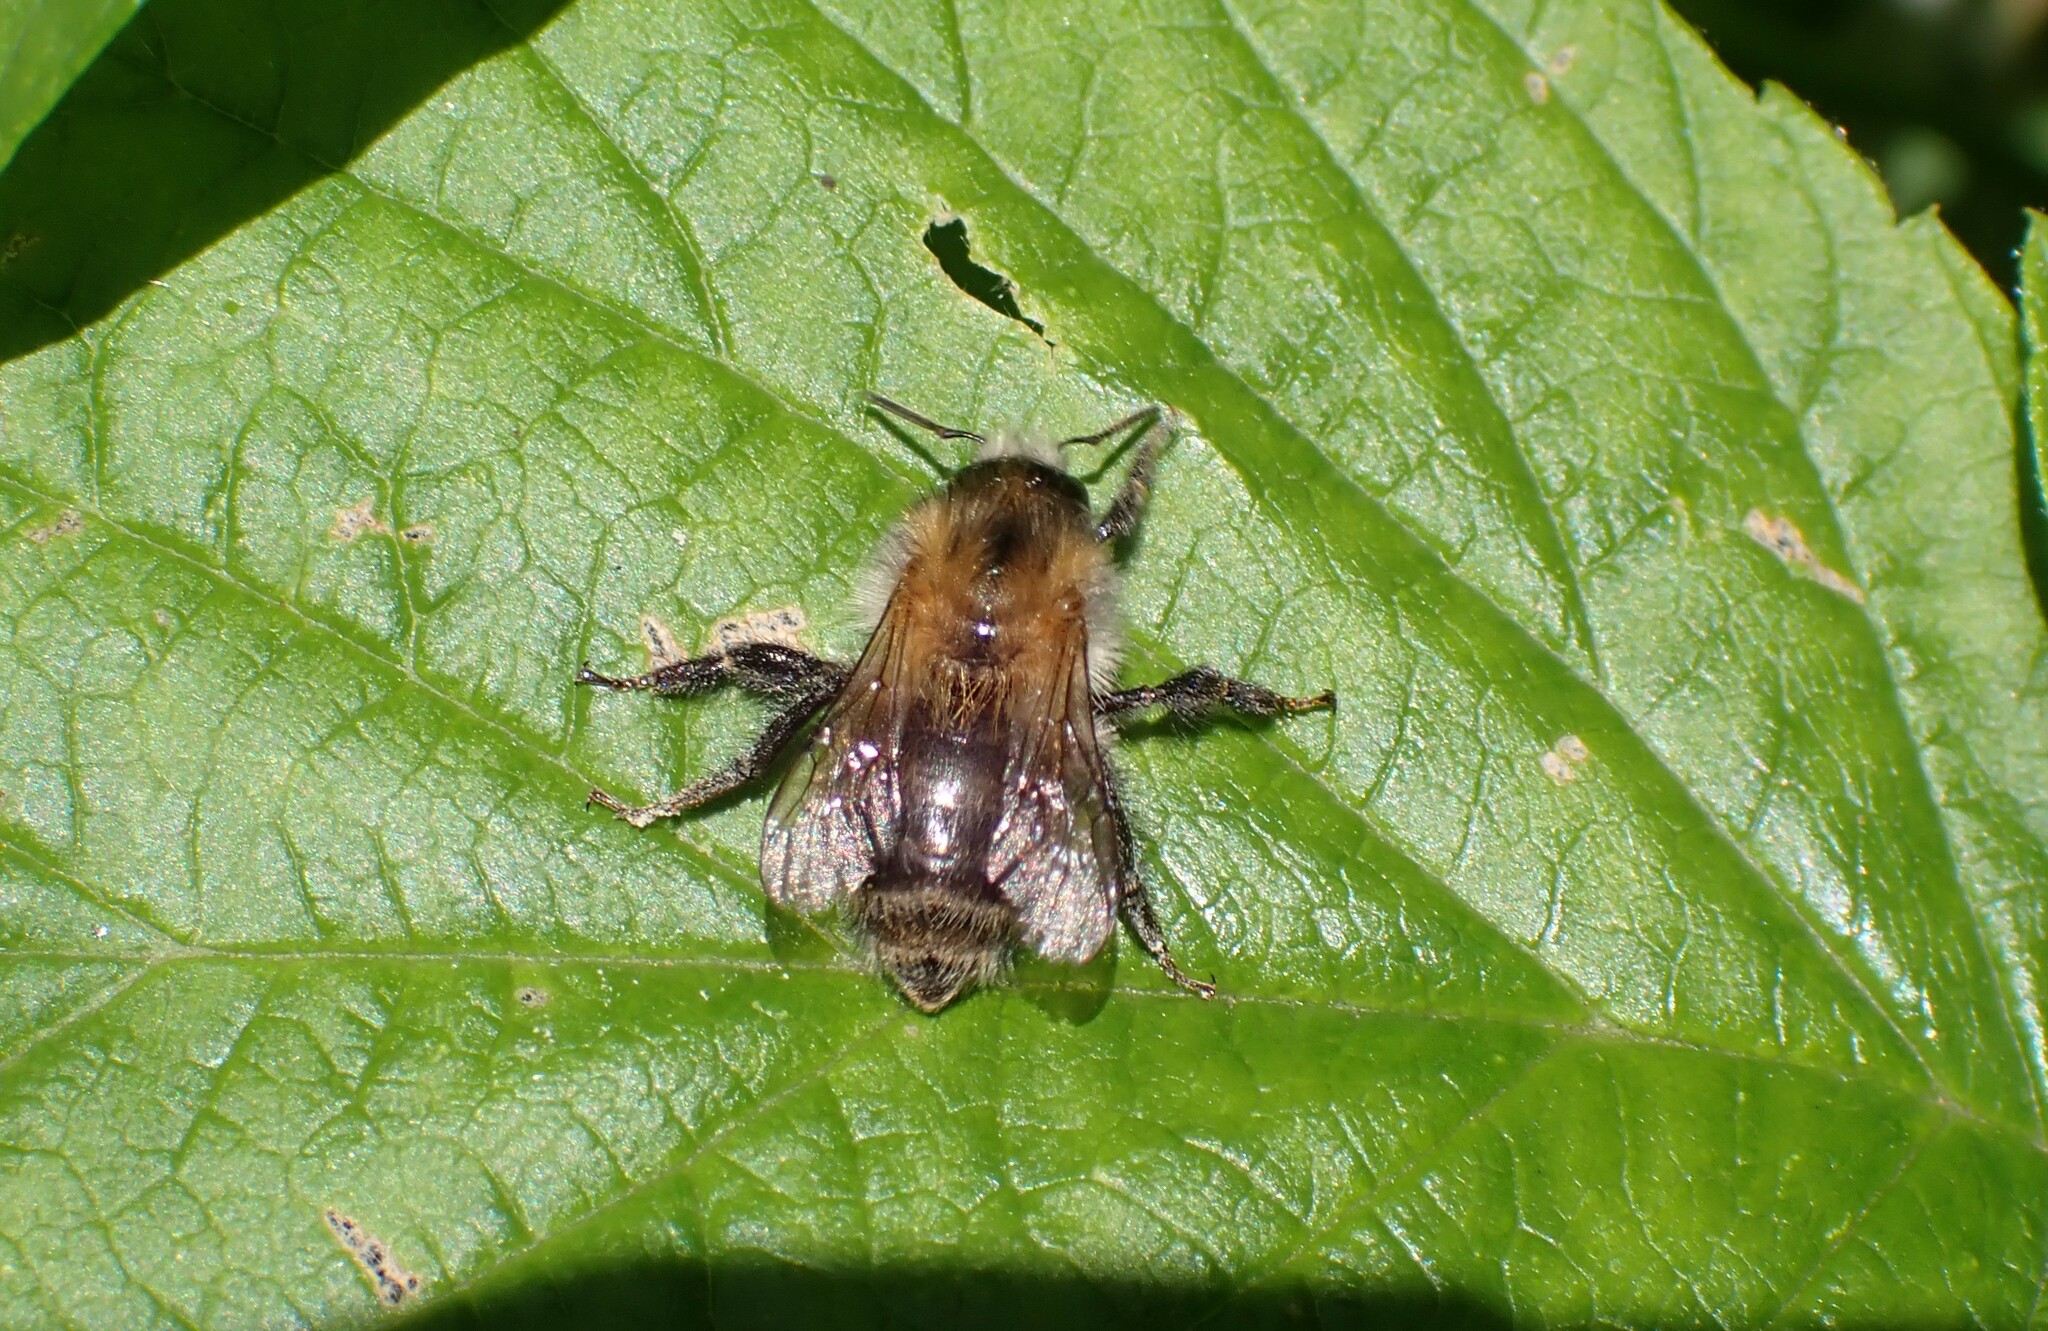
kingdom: Animalia
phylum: Arthropoda
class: Insecta
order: Hymenoptera
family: Apidae
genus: Bombus
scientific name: Bombus pascuorum
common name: Common carder bee
